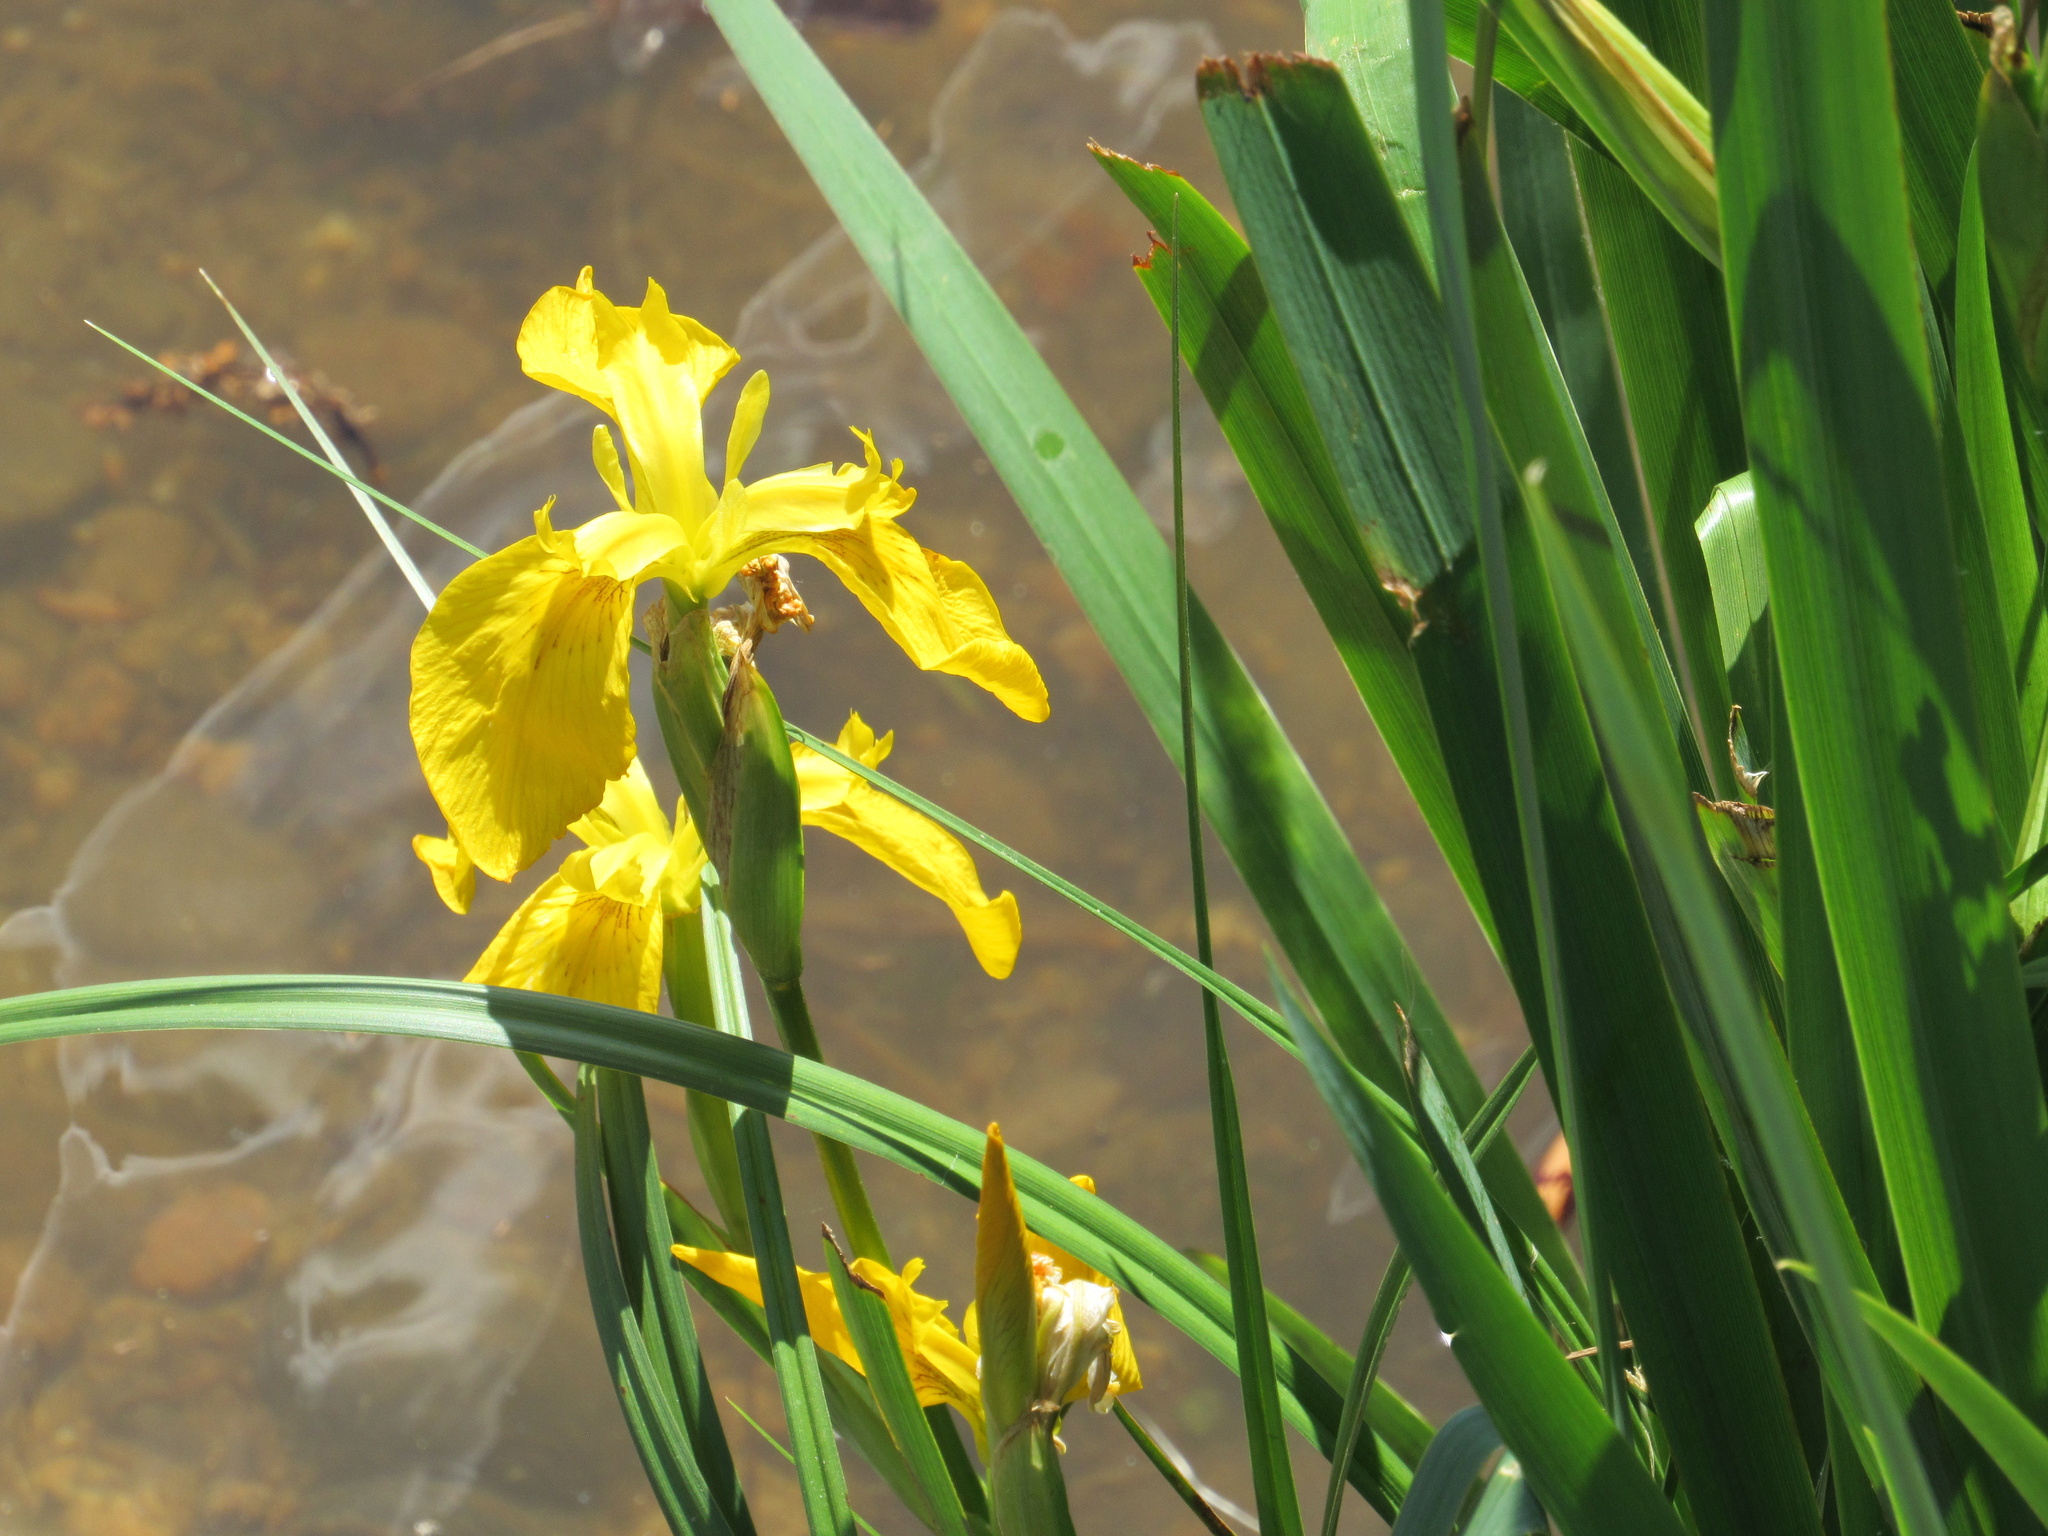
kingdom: Plantae
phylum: Tracheophyta
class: Liliopsida
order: Asparagales
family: Iridaceae
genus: Iris
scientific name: Iris pseudacorus
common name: Yellow flag
